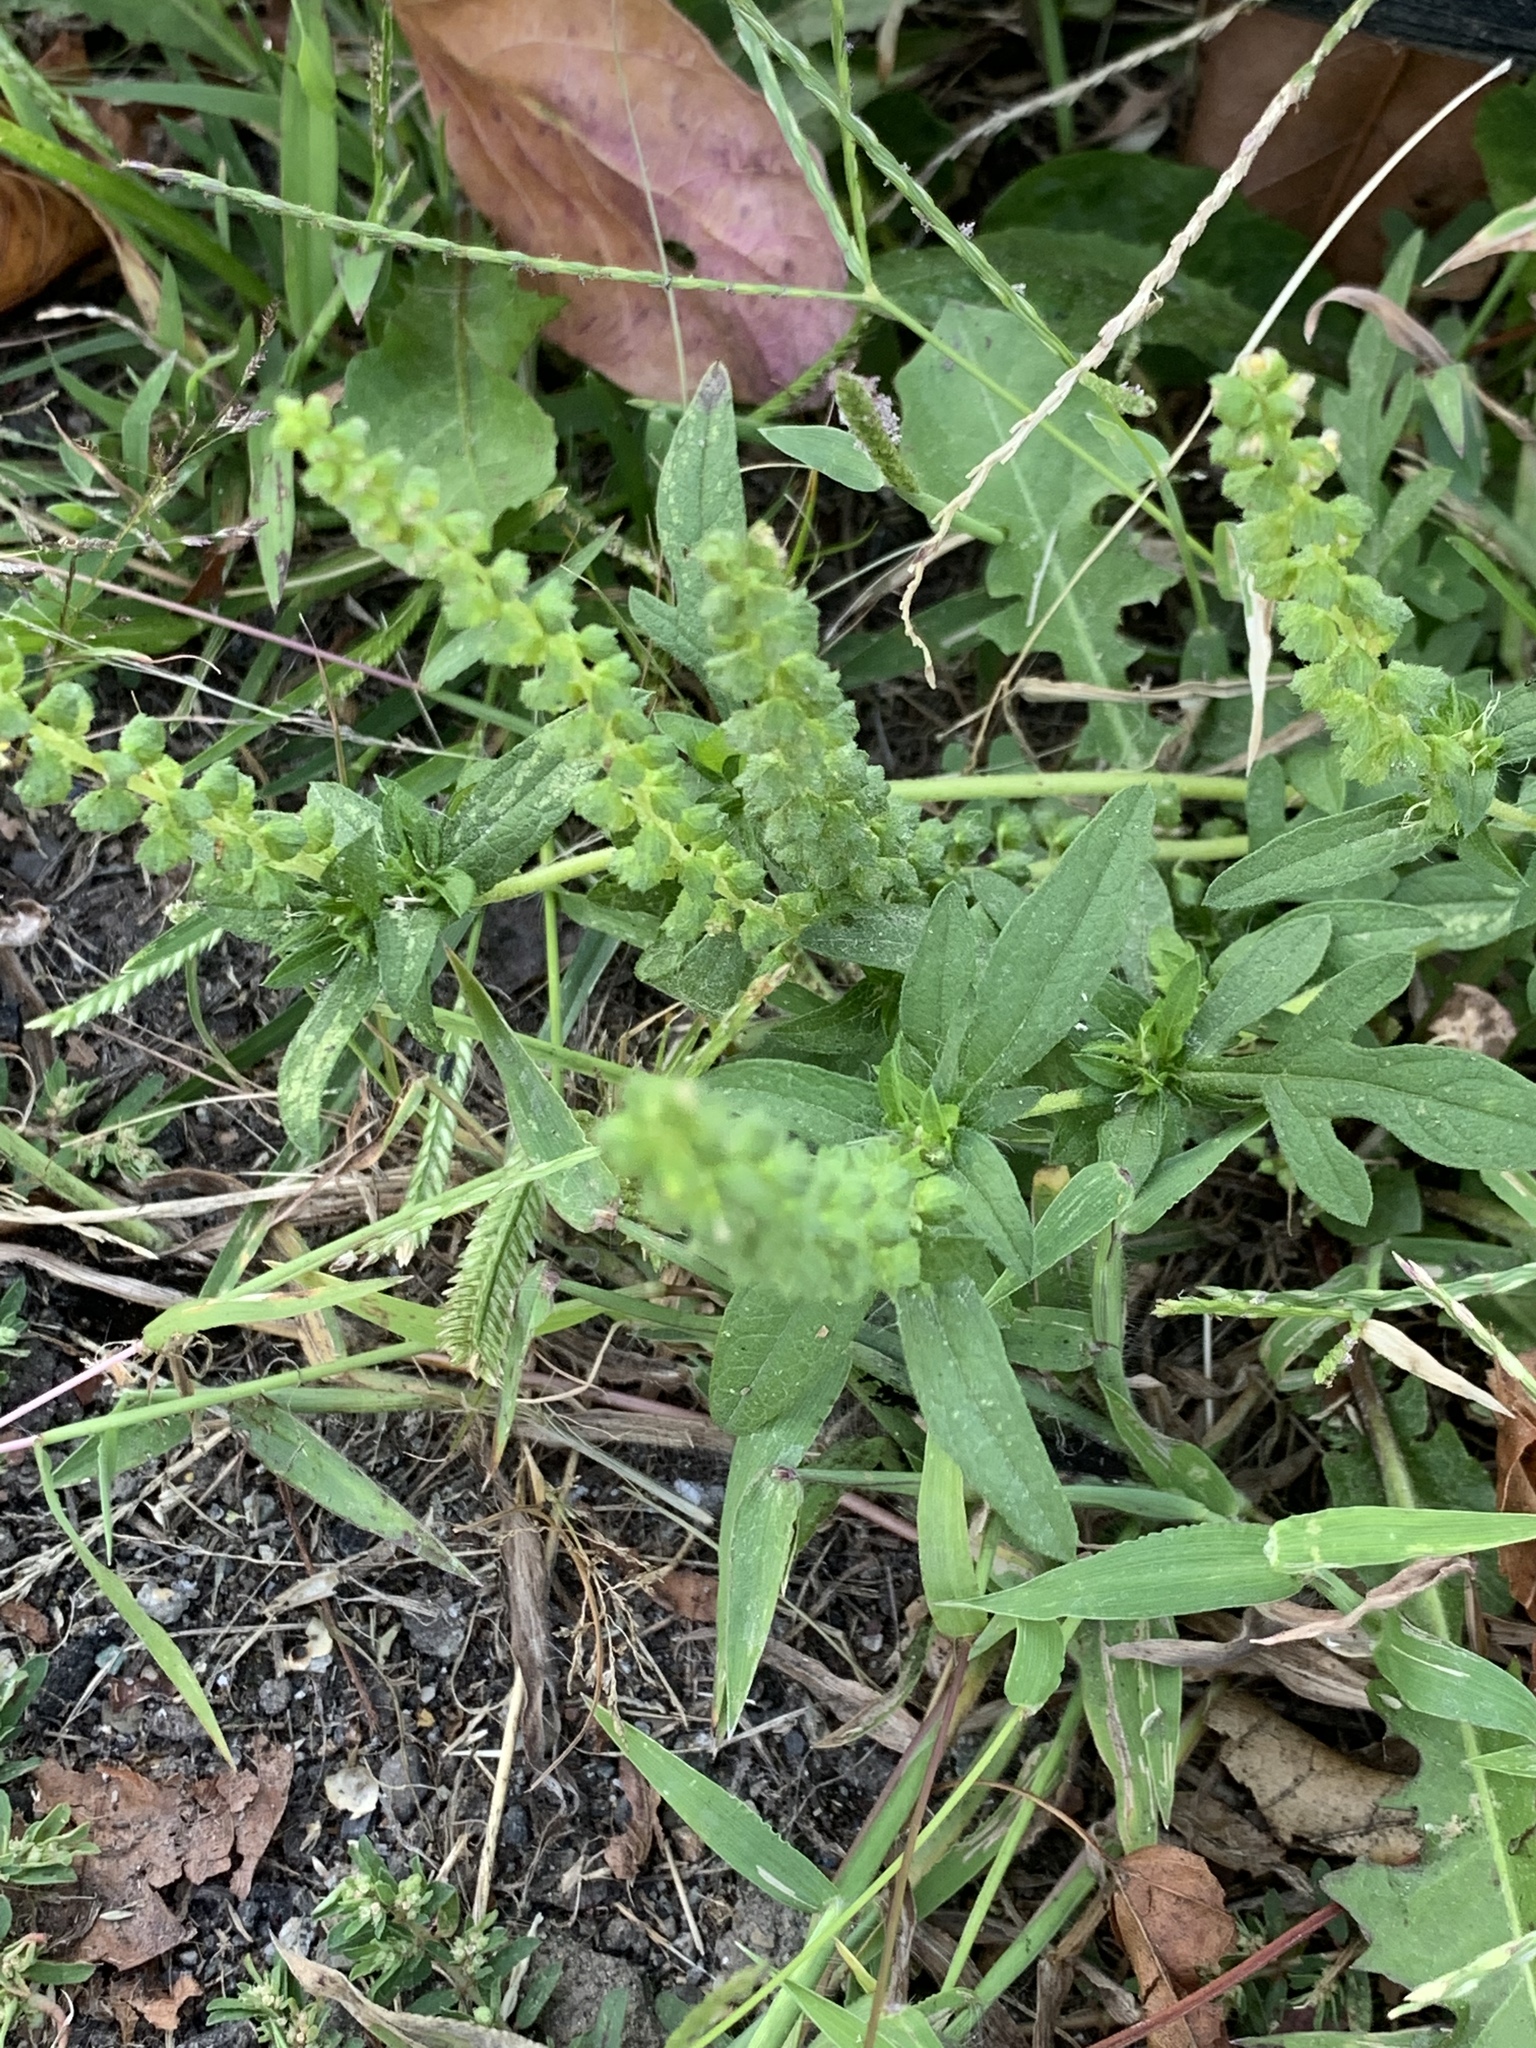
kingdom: Plantae
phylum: Tracheophyta
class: Magnoliopsida
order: Asterales
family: Asteraceae
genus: Ambrosia
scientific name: Ambrosia artemisiifolia
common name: Annual ragweed
